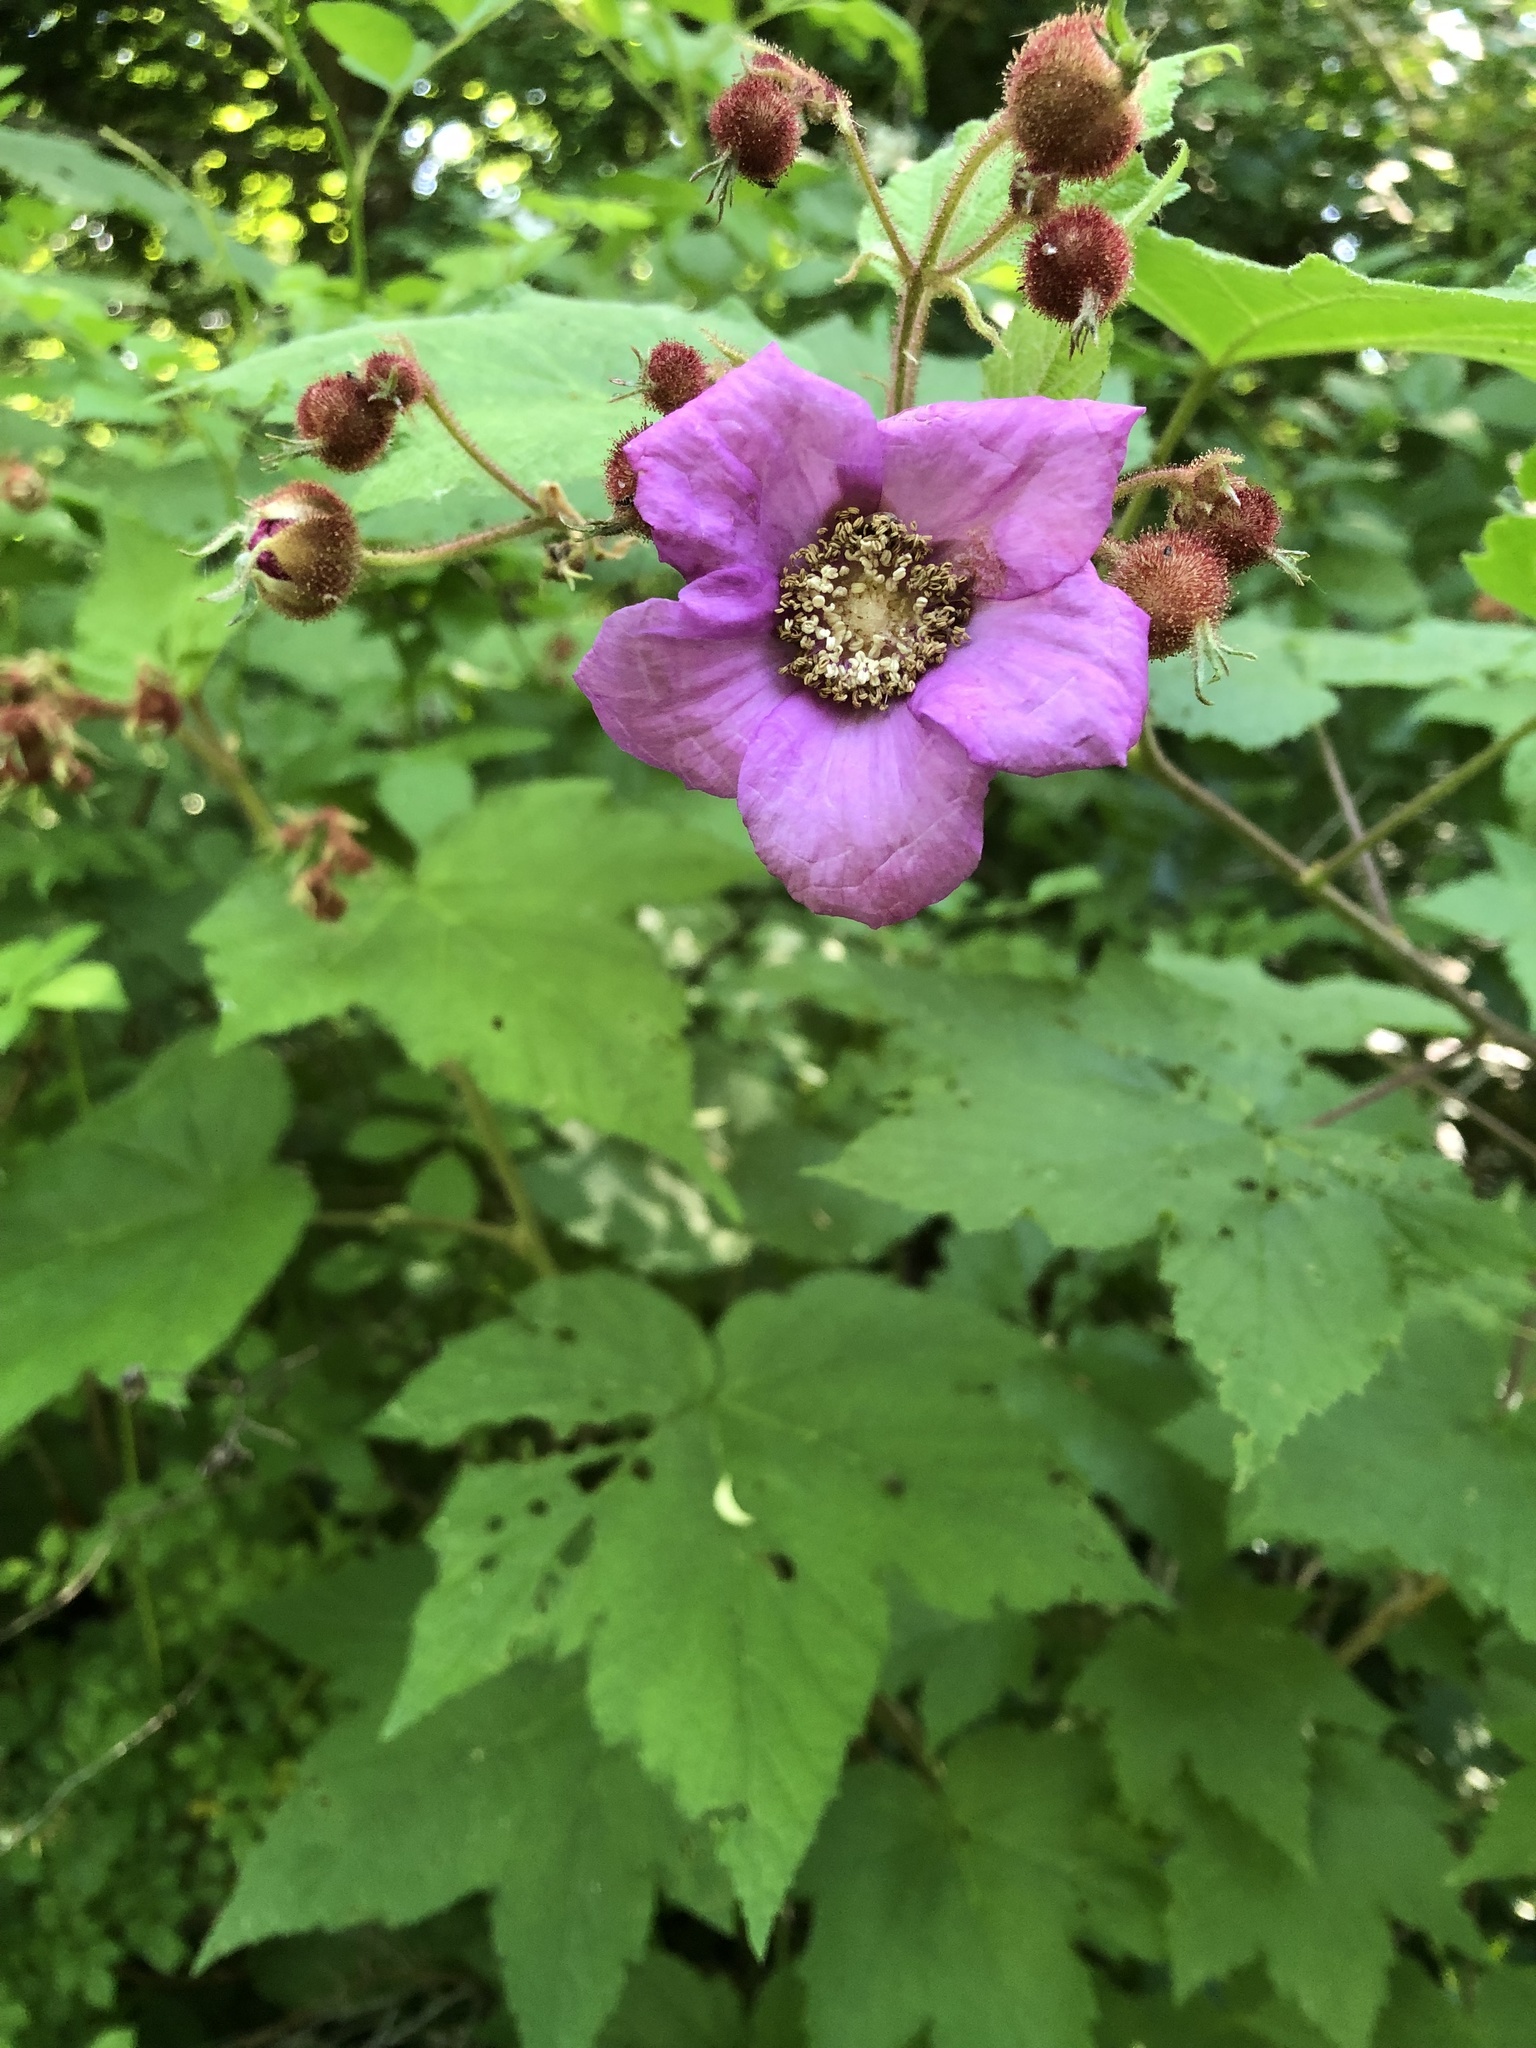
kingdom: Plantae
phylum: Tracheophyta
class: Magnoliopsida
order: Rosales
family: Rosaceae
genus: Rubus
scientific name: Rubus odoratus
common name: Purple-flowered raspberry
